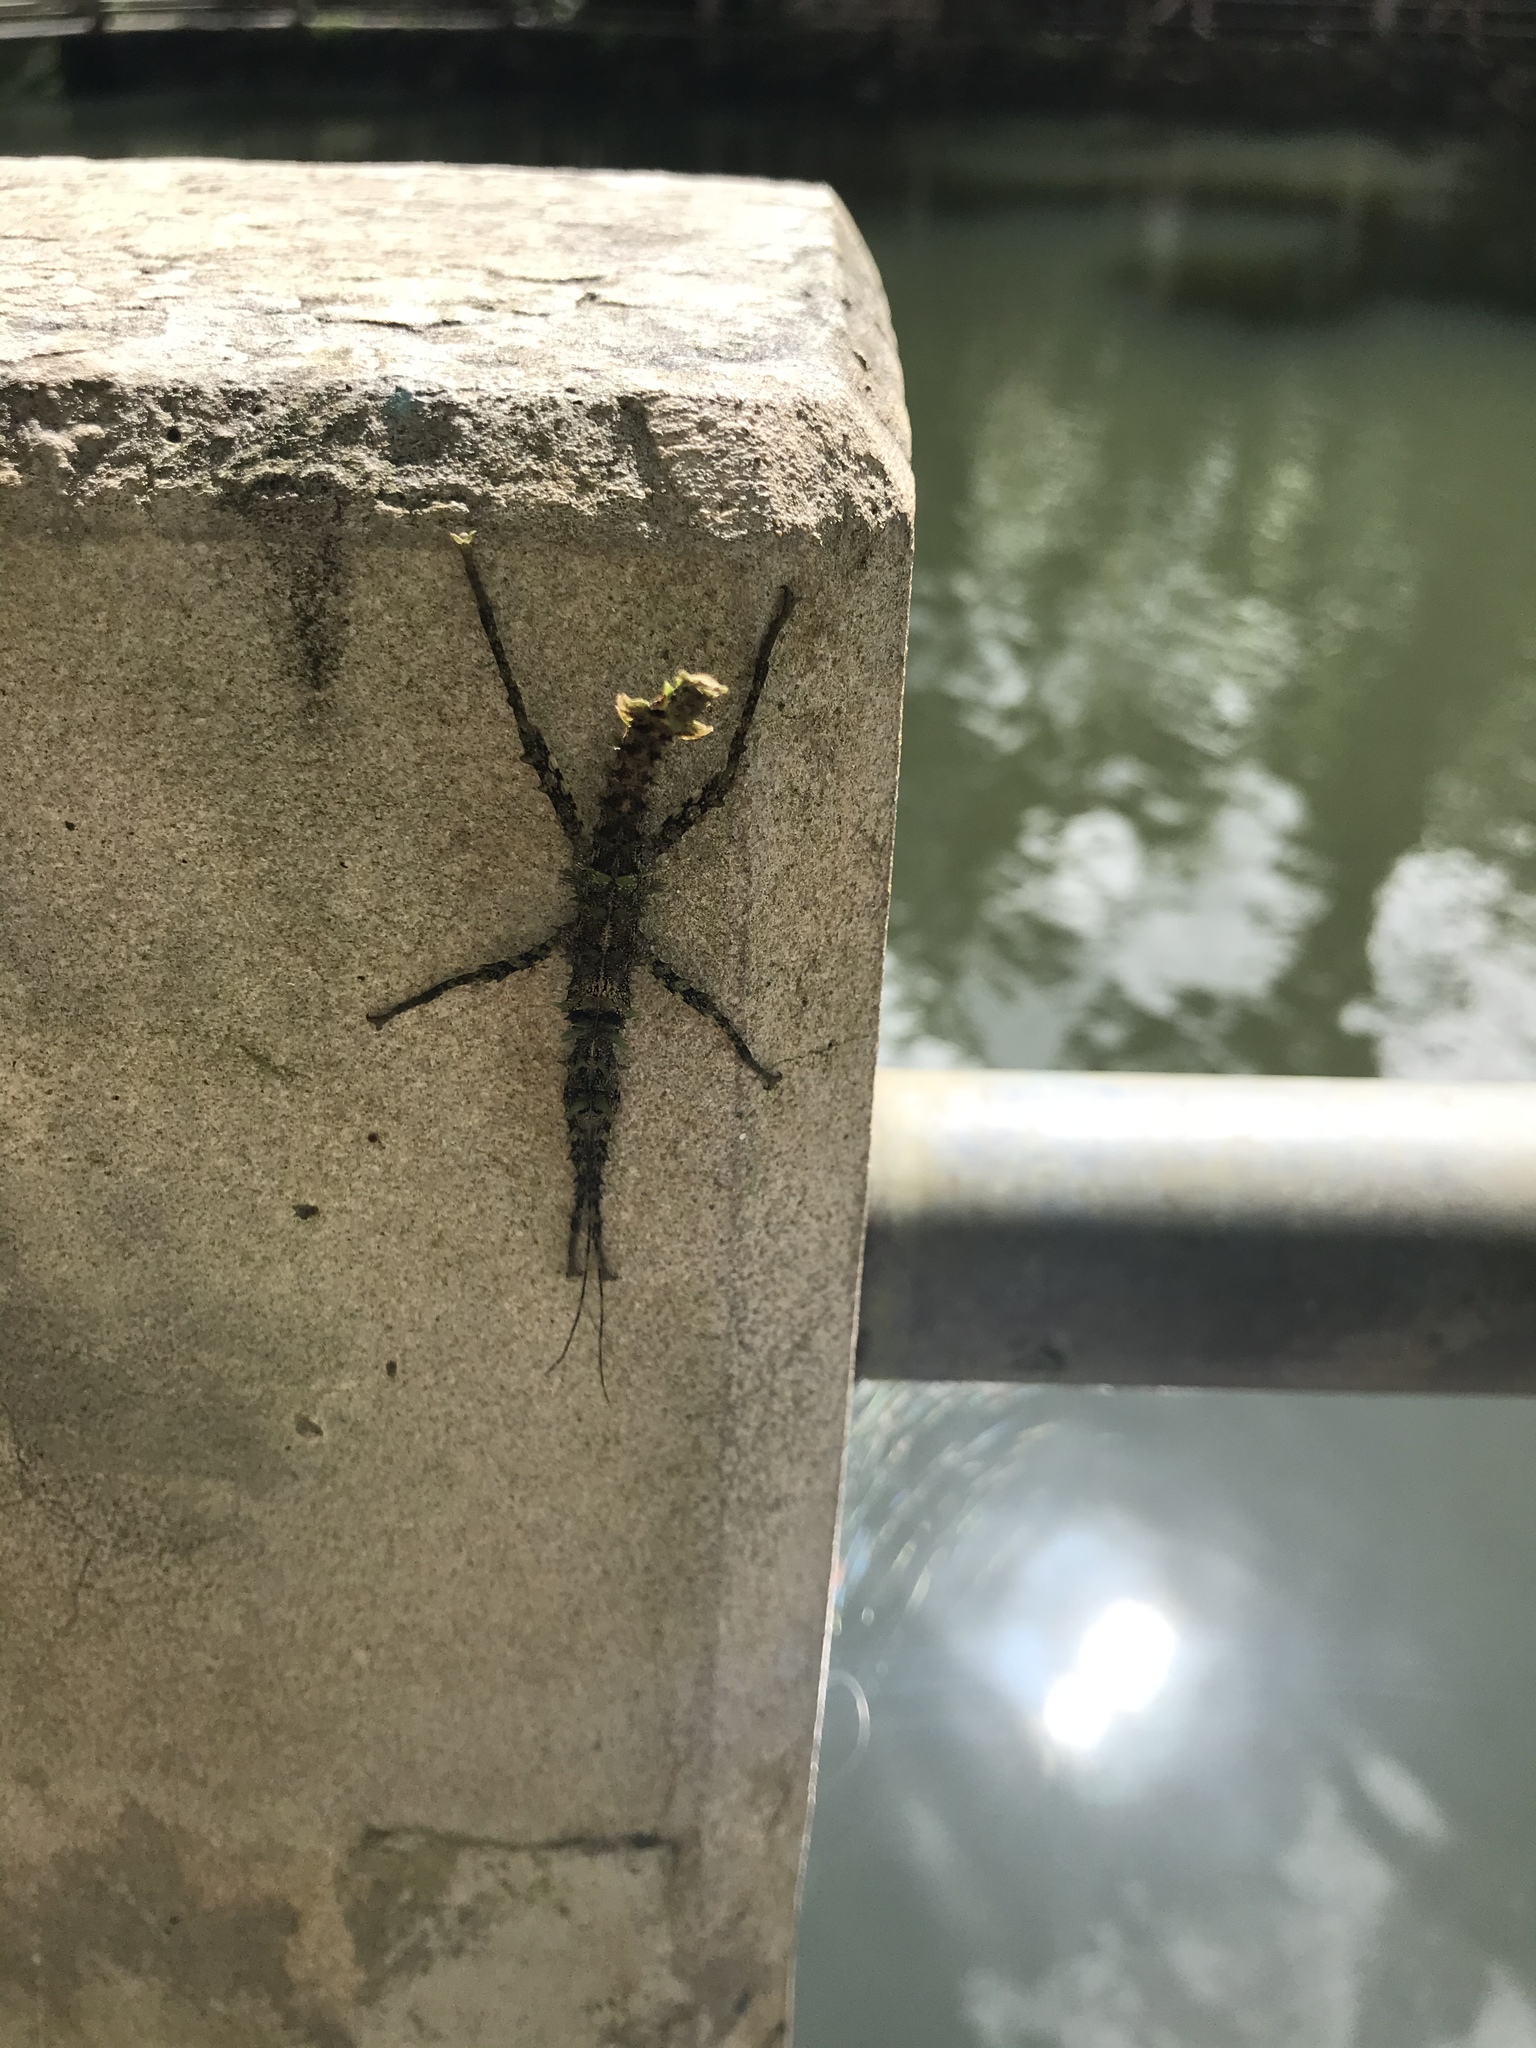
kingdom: Animalia
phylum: Arthropoda
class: Insecta
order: Phasmida
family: Phasmatidae
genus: Lamponius
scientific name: Lamponius nebulosus
